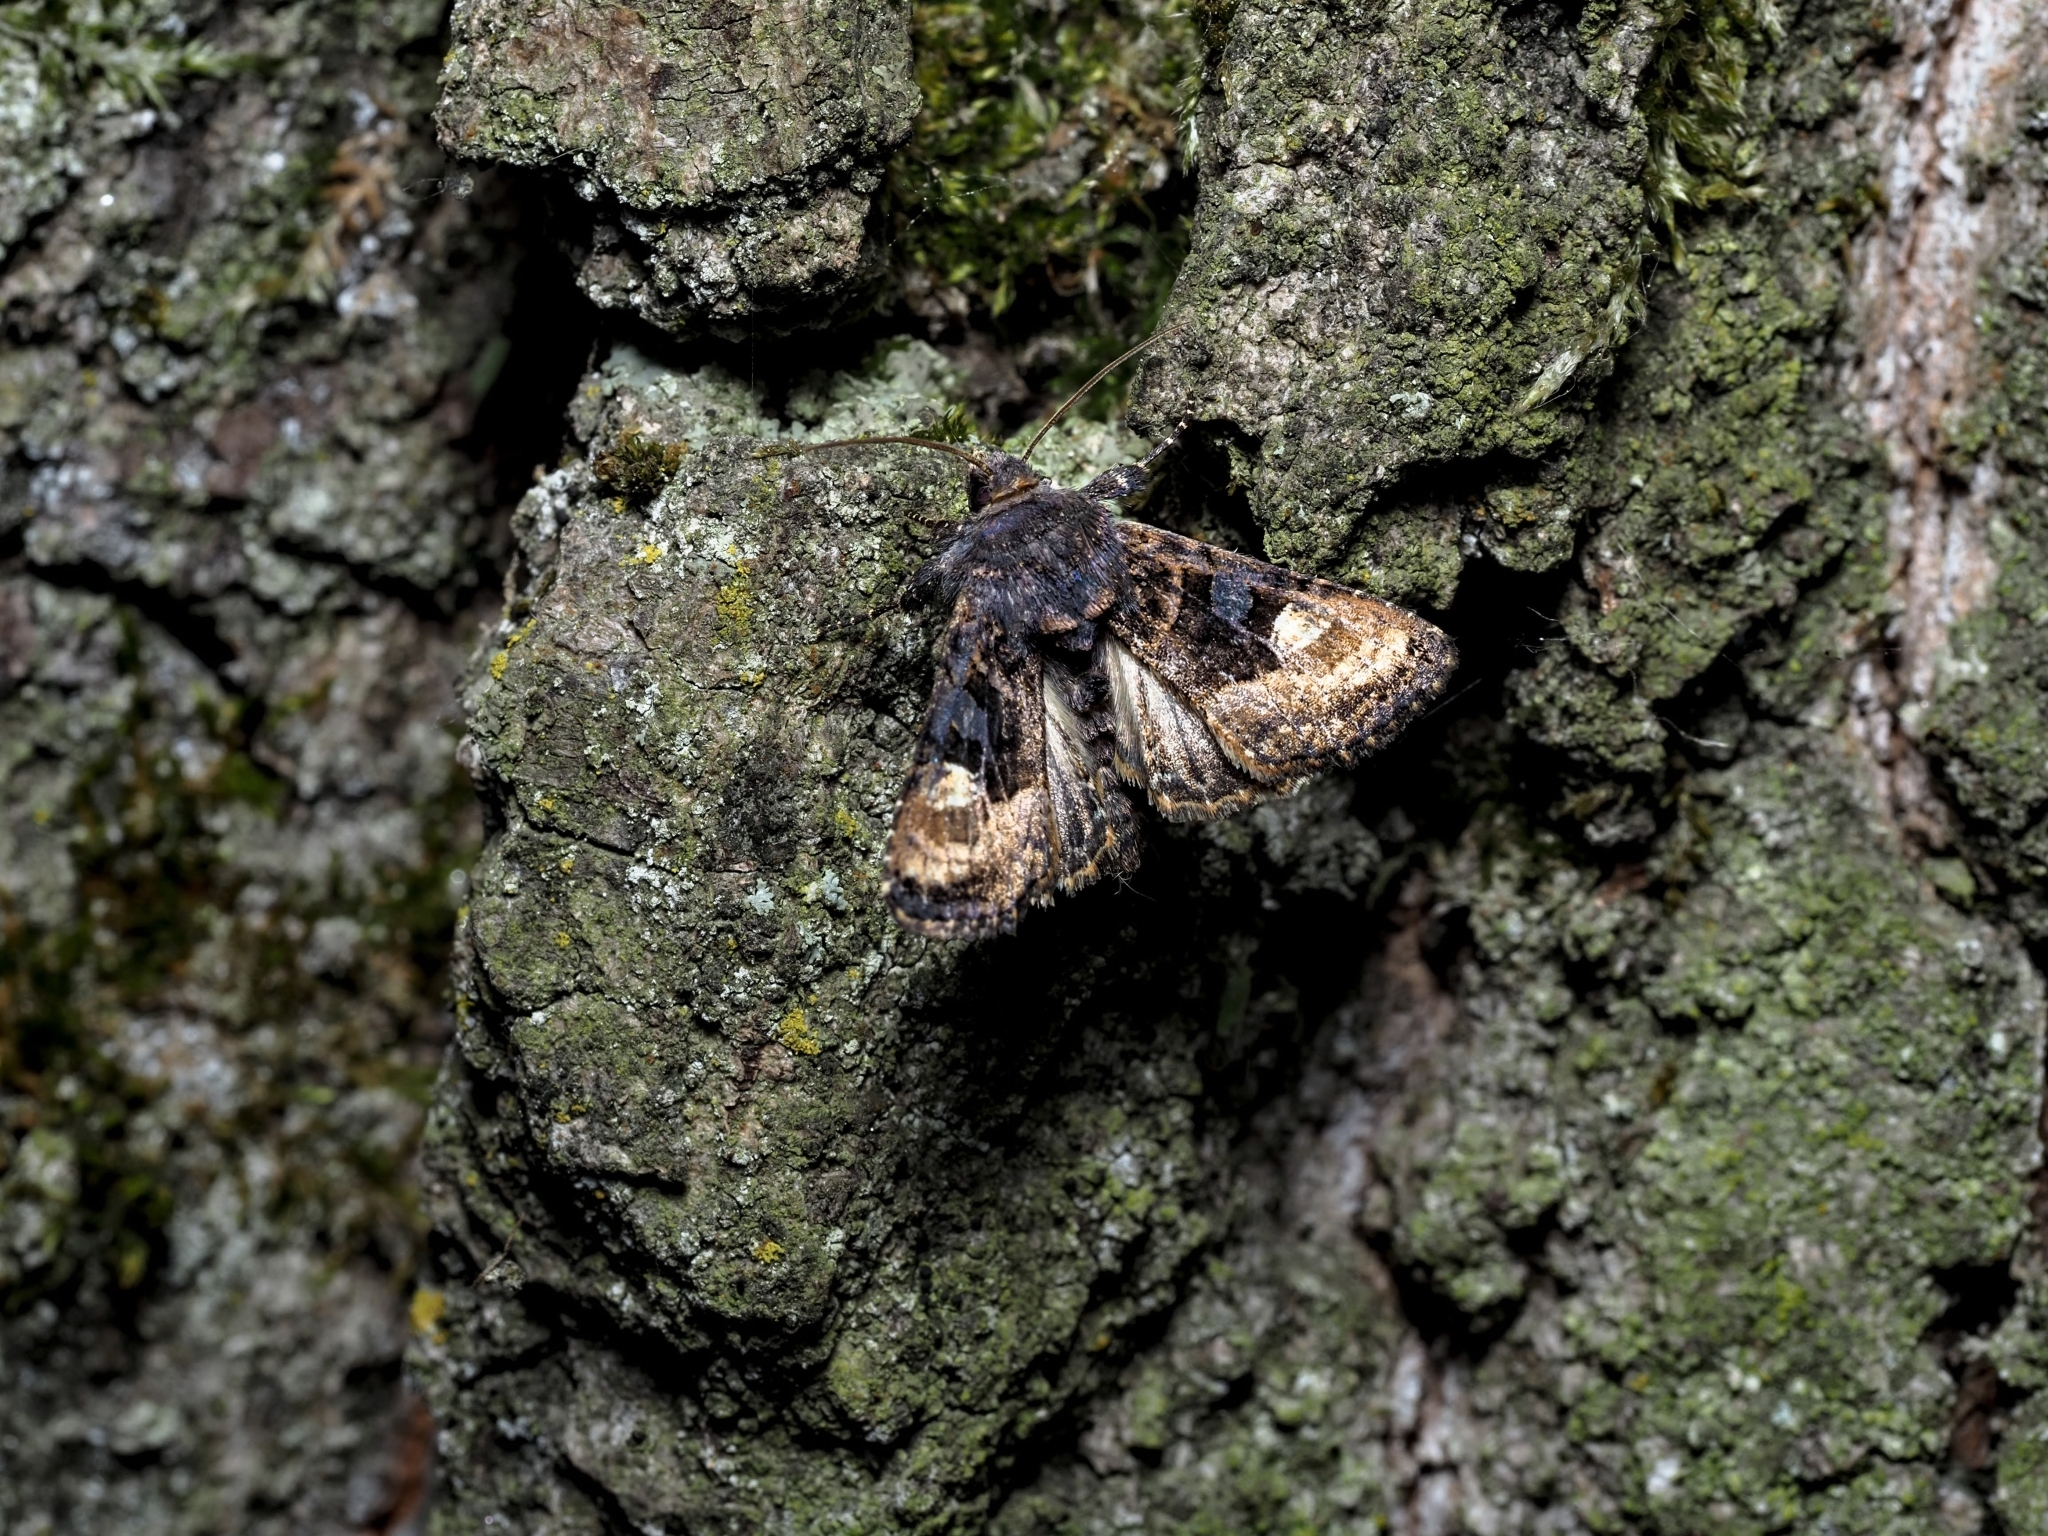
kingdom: Animalia
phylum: Arthropoda
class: Insecta
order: Lepidoptera
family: Noctuidae
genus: Euplexia
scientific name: Euplexia lucipara
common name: Small angle shades
